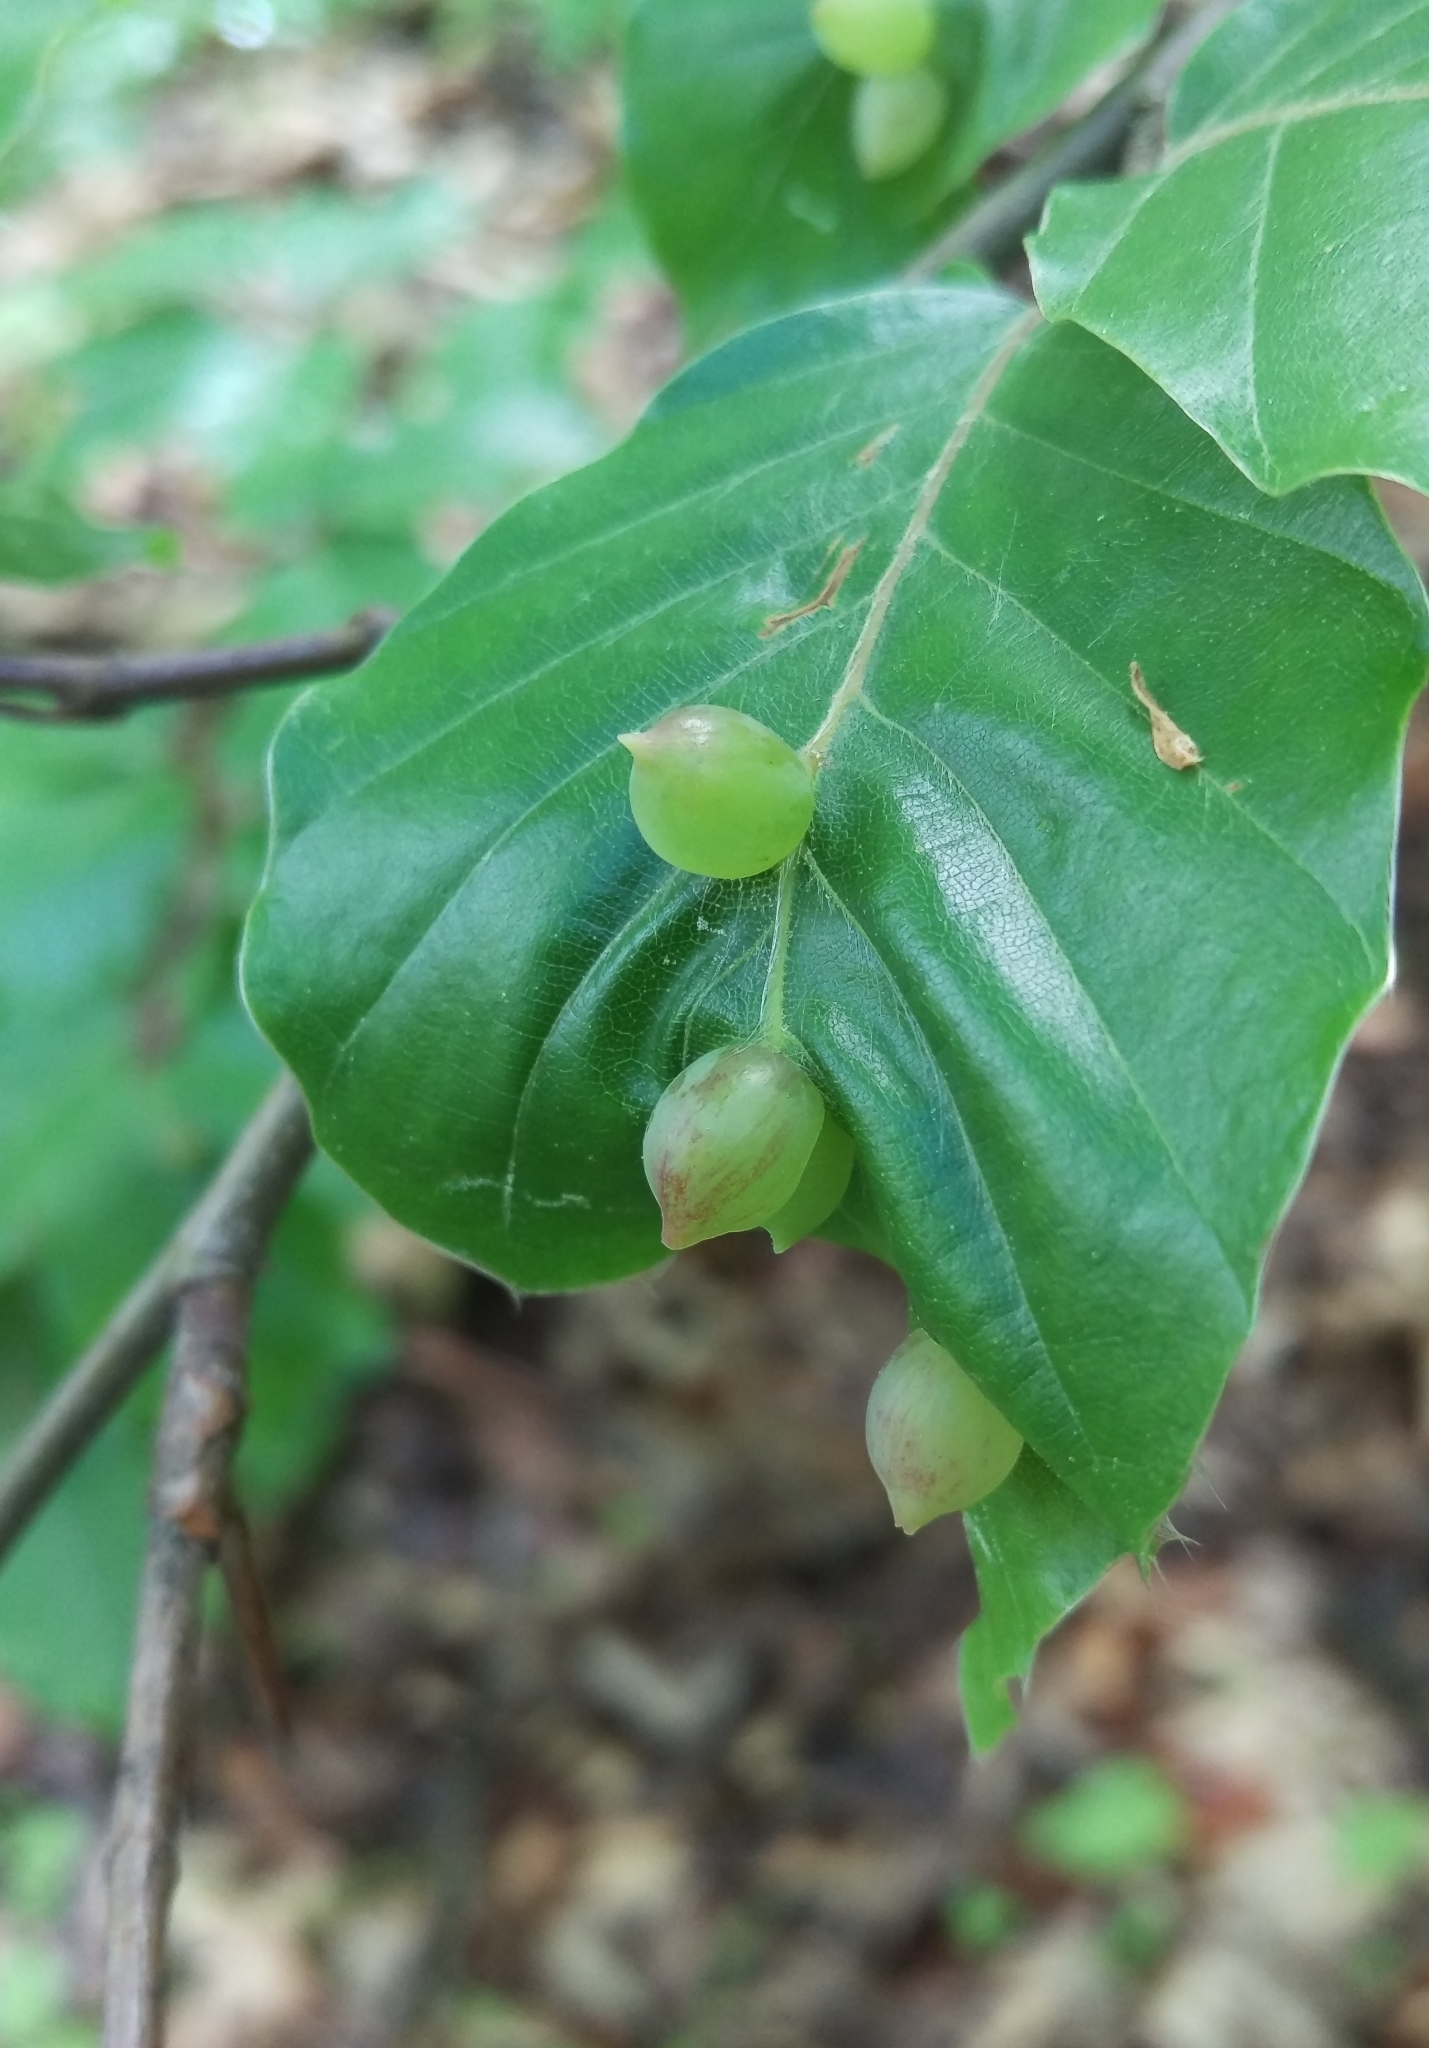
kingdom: Animalia
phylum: Arthropoda
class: Insecta
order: Diptera
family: Cecidomyiidae
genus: Mikiola
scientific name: Mikiola fagi
